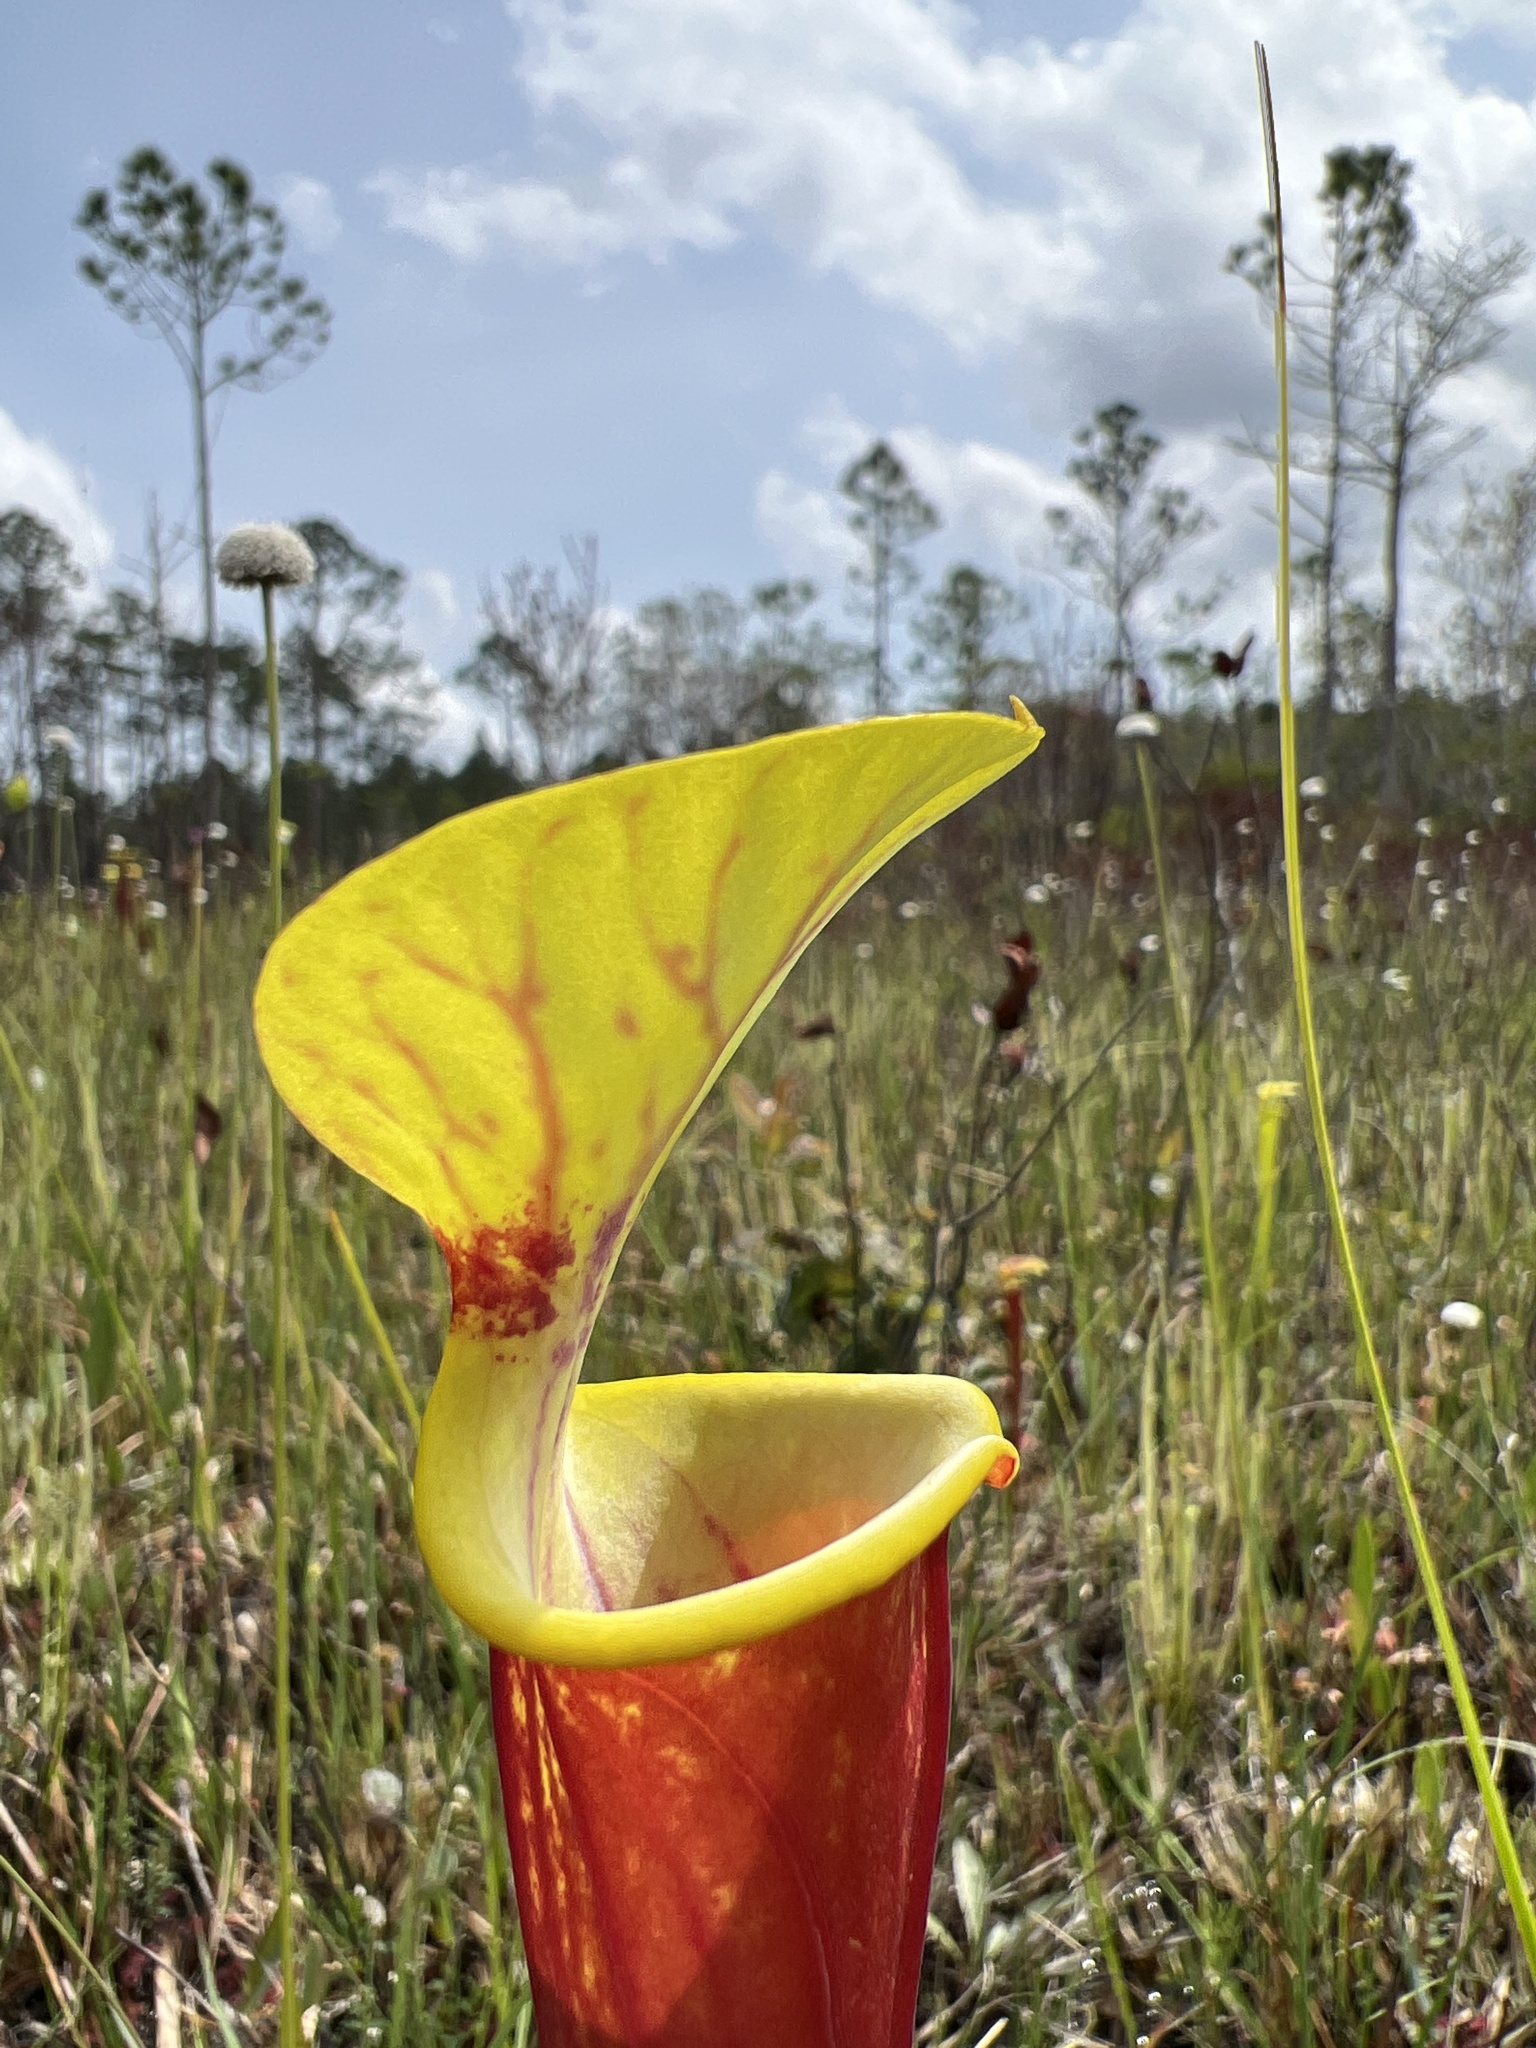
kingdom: Plantae
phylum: Tracheophyta
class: Magnoliopsida
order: Ericales
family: Sarraceniaceae
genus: Sarracenia
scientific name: Sarracenia flava
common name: Trumpets
